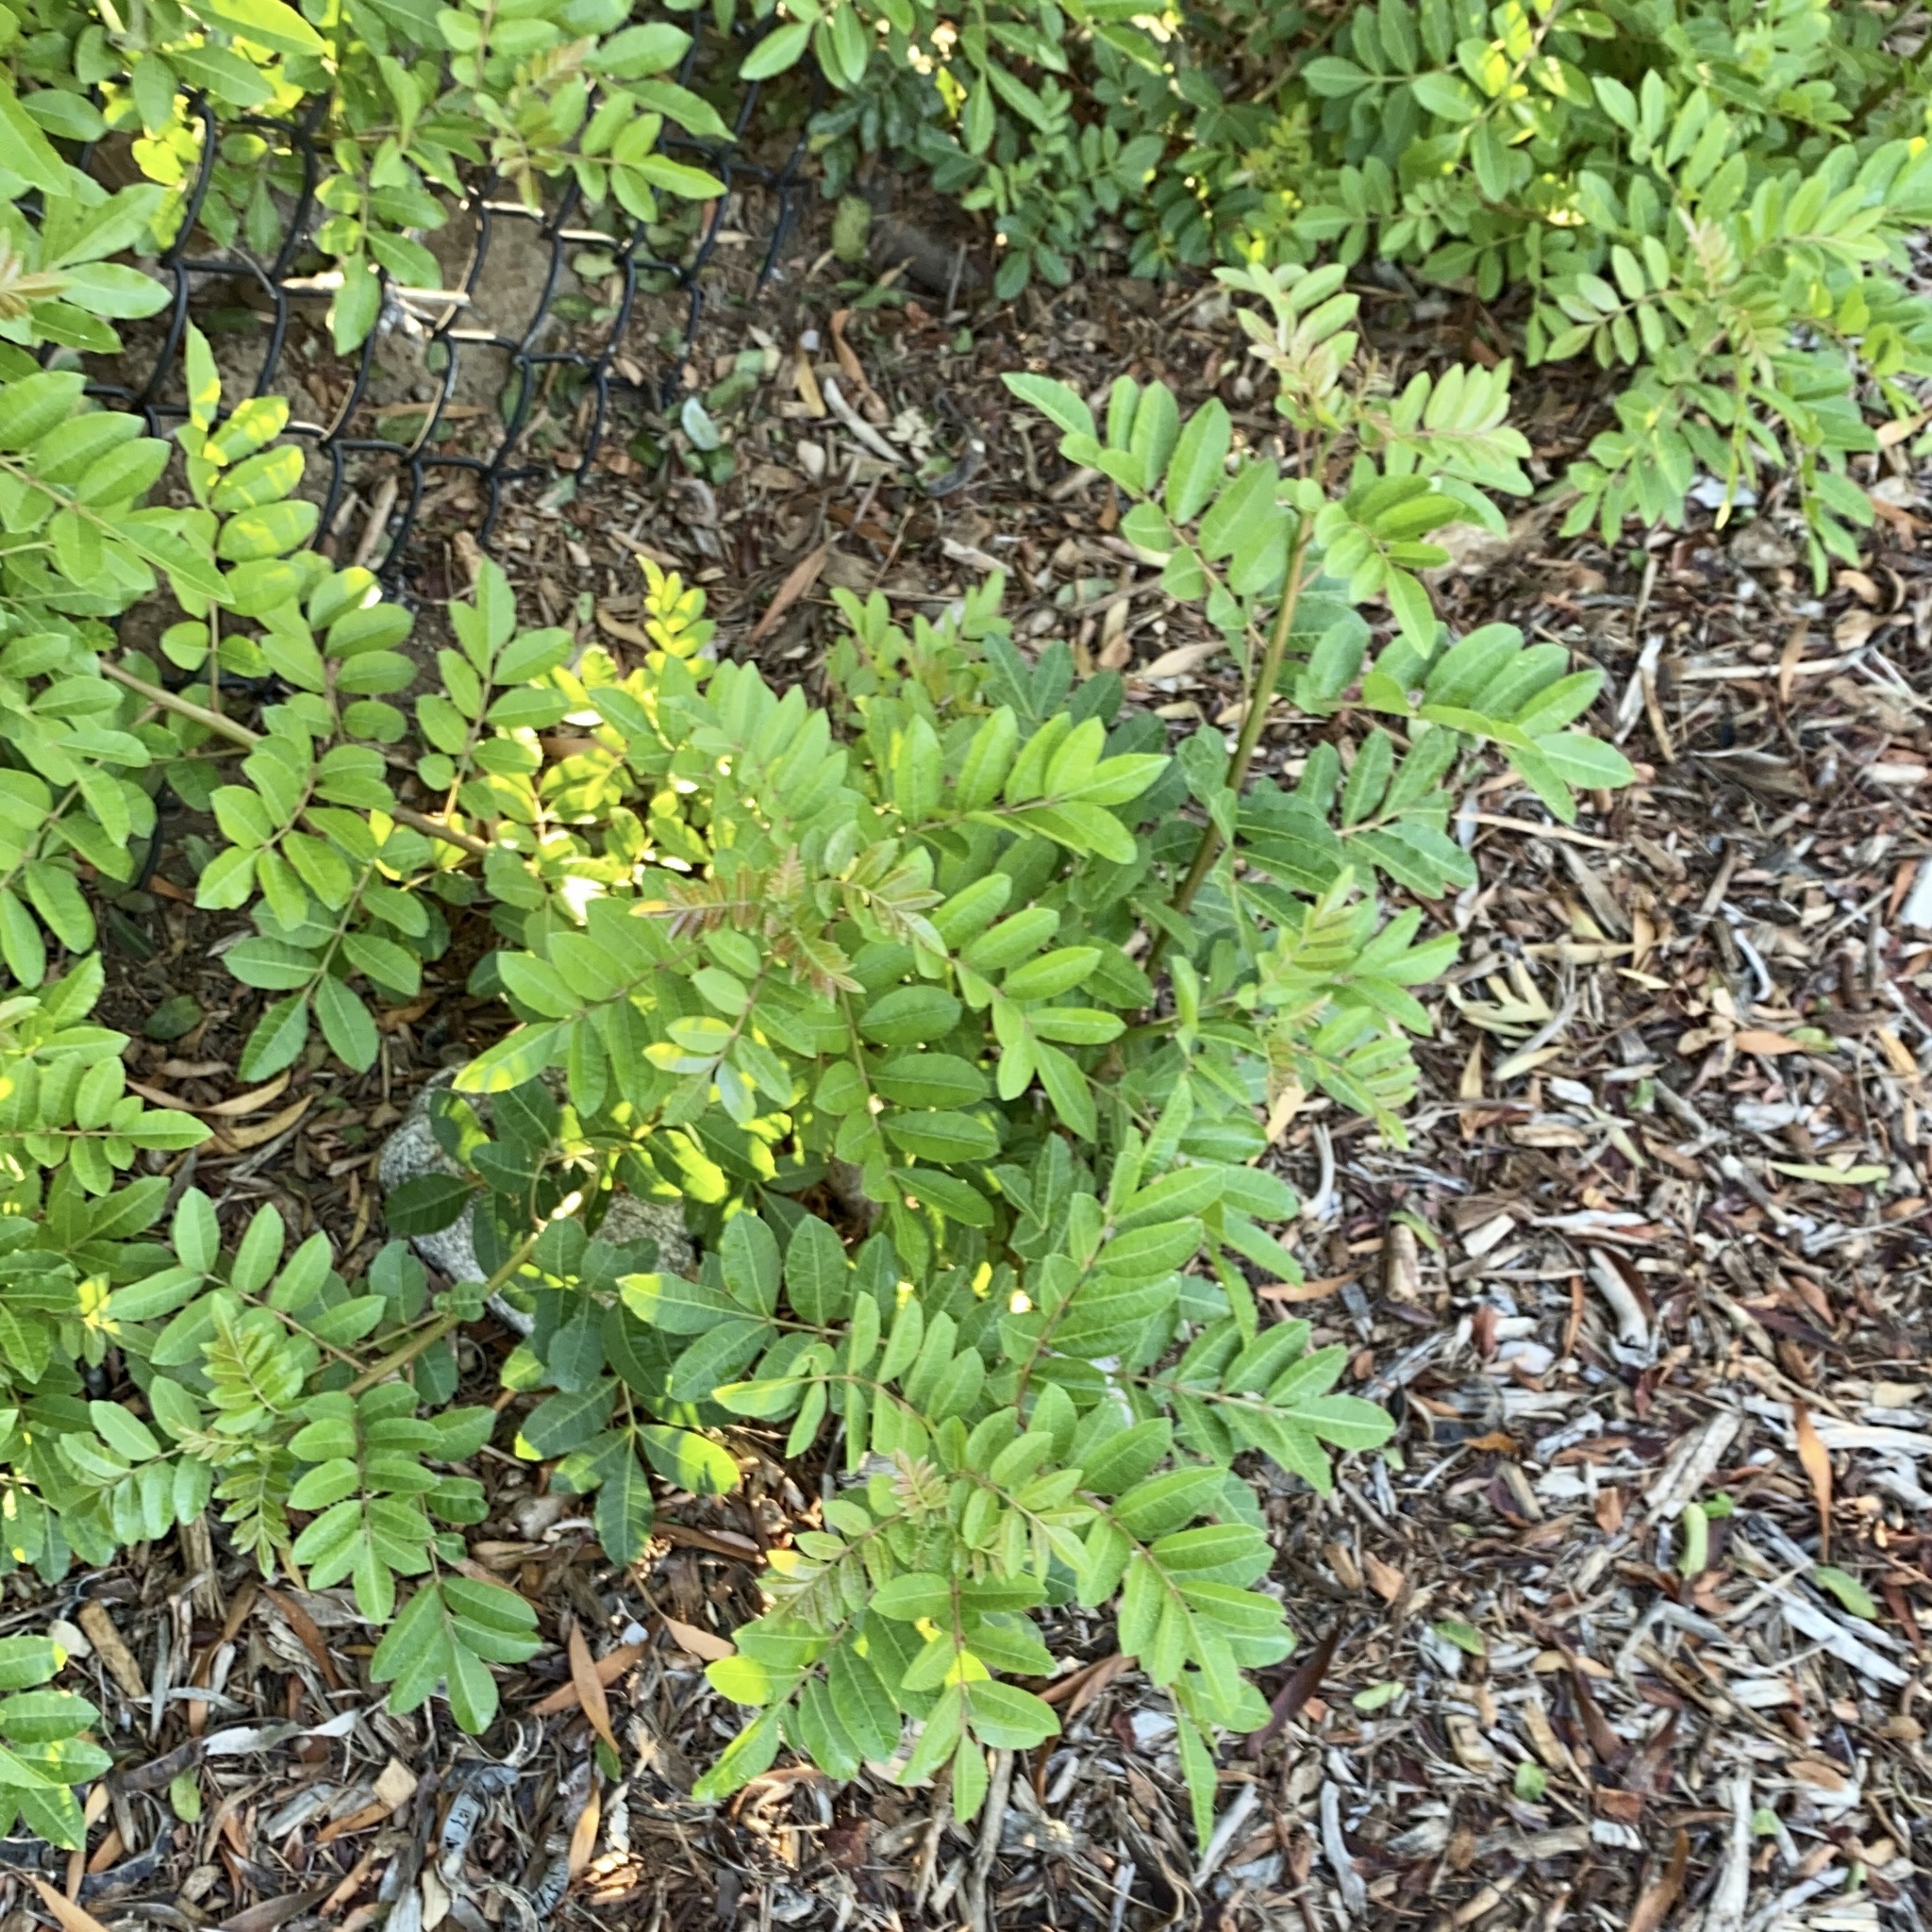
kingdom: Plantae
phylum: Tracheophyta
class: Magnoliopsida
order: Sapindales
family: Anacardiaceae
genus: Schinus
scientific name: Schinus terebinthifolia
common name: Brazilian peppertree
